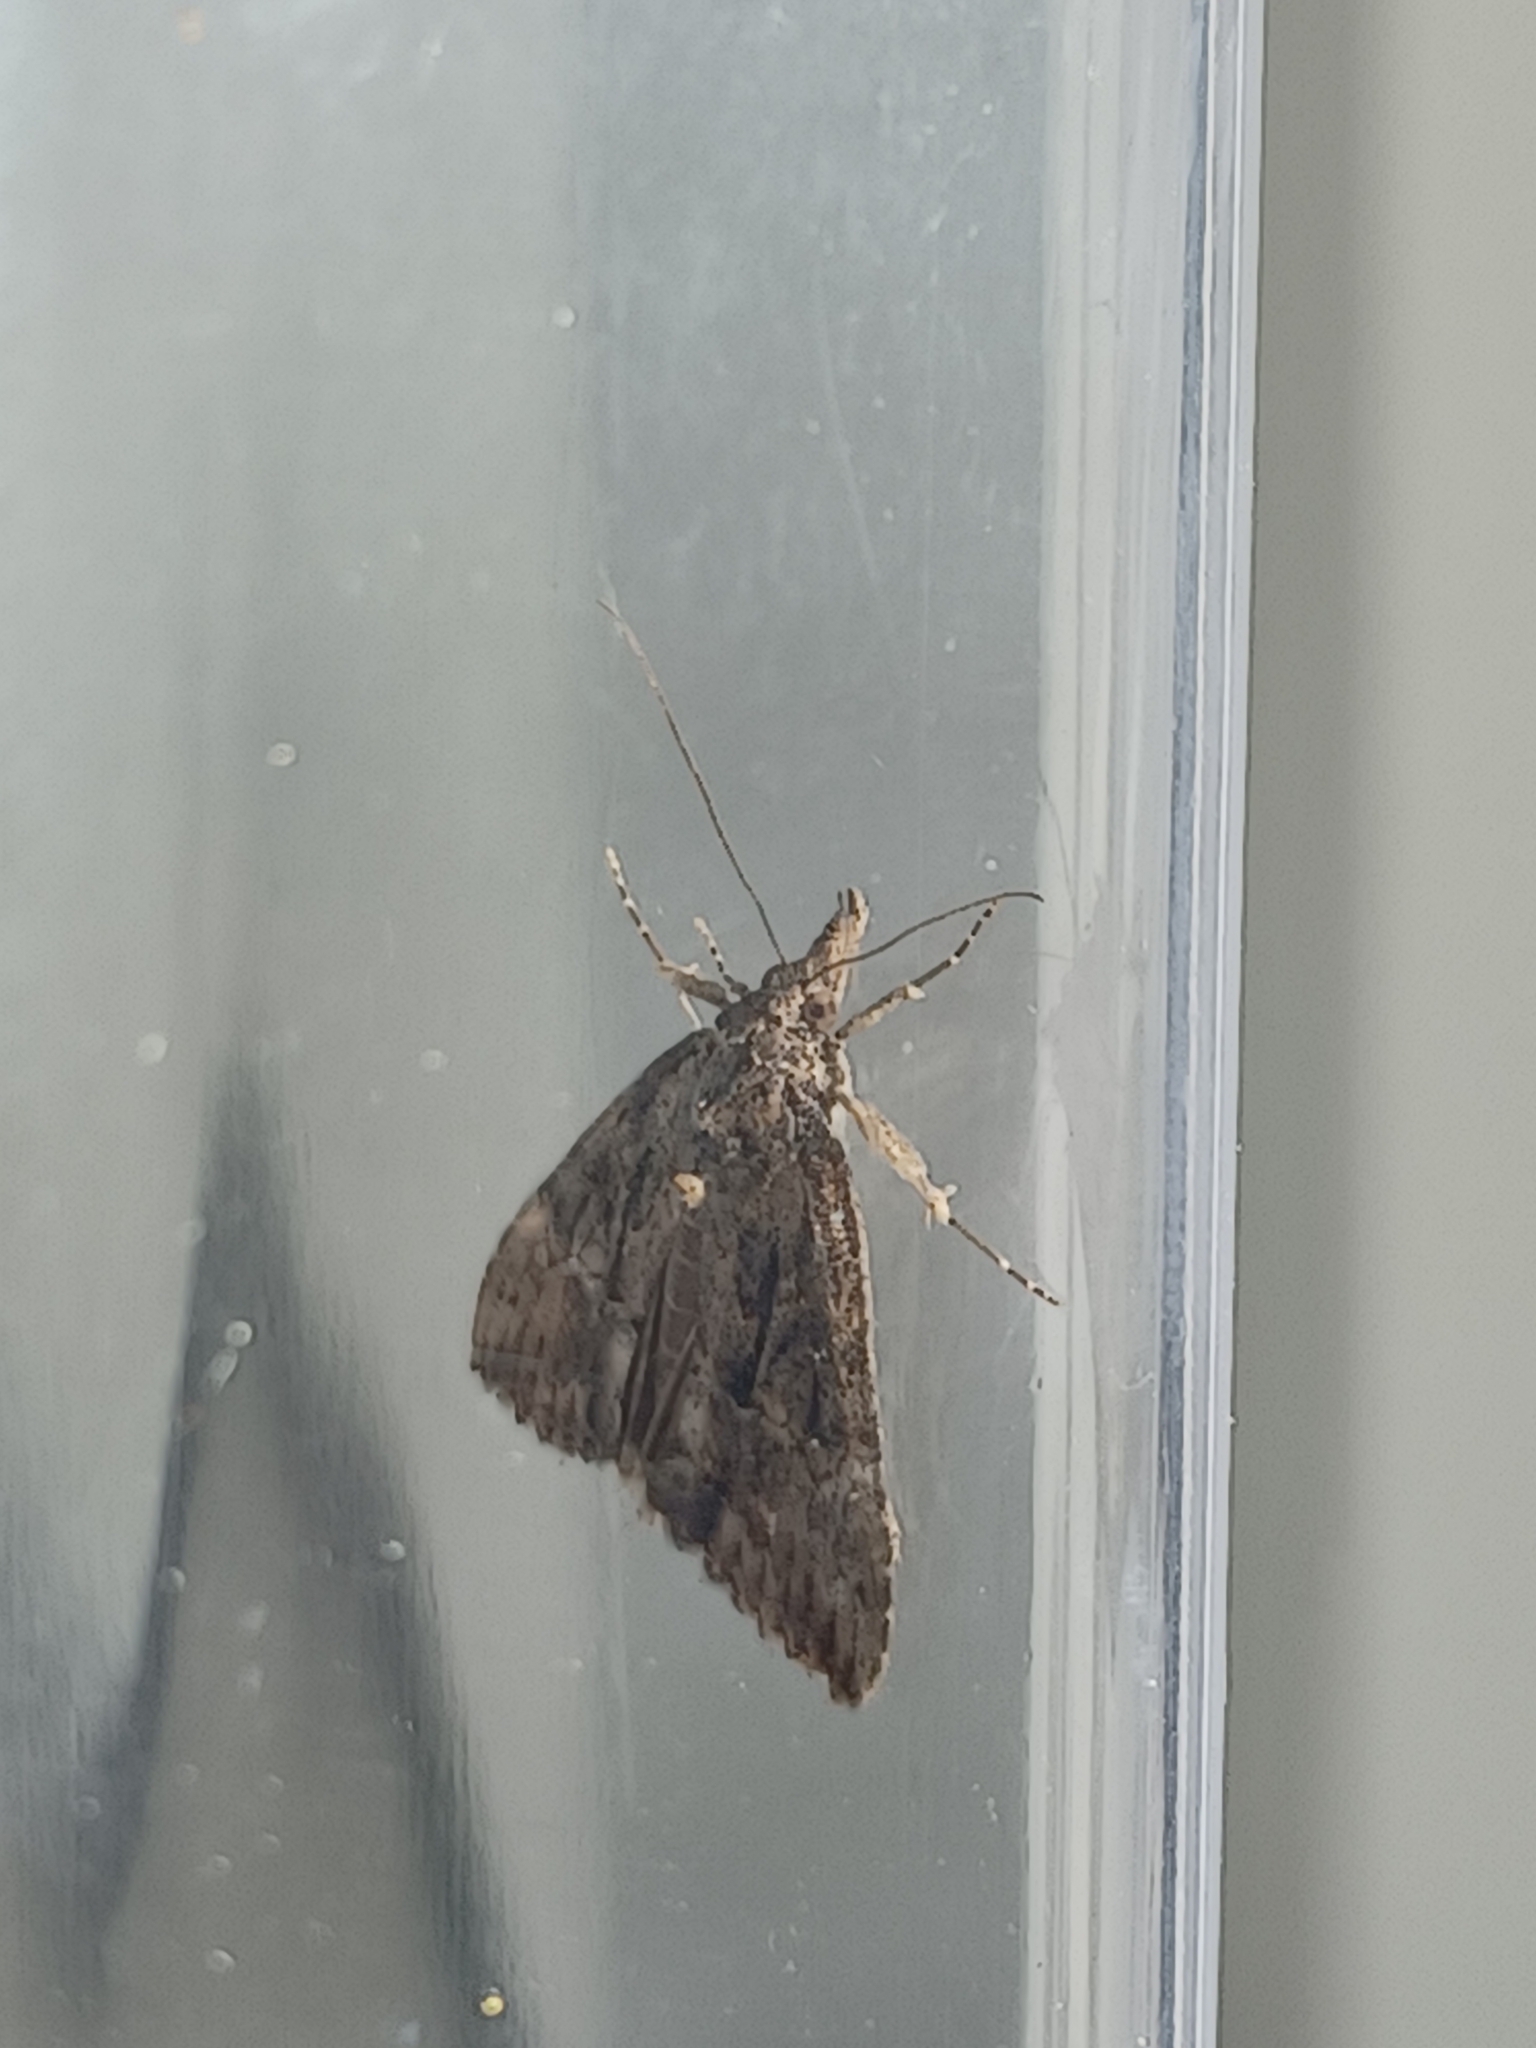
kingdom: Animalia
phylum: Arthropoda
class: Insecta
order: Lepidoptera
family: Erebidae
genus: Hypena
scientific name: Hypena scabra
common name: Green cloverworm
